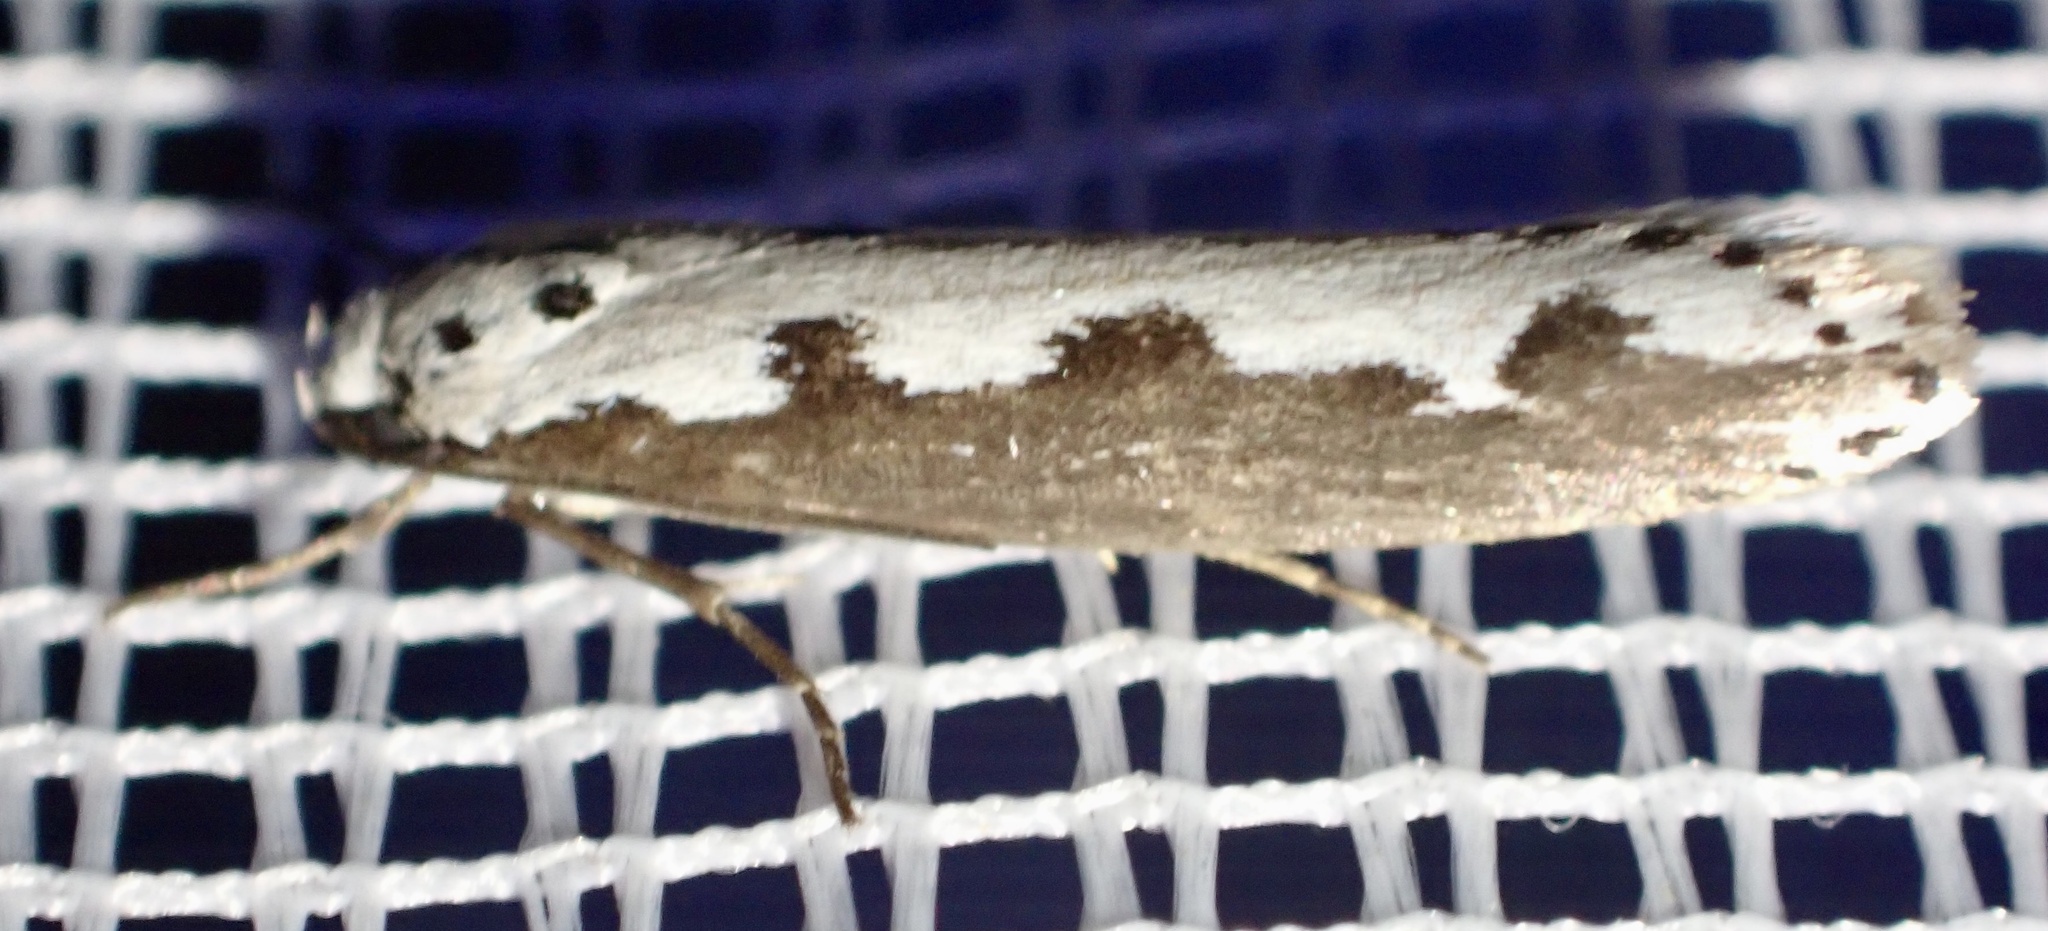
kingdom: Animalia
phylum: Arthropoda
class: Insecta
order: Lepidoptera
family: Ethmiidae
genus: Ethmia
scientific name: Ethmia bipunctella
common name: Bordered ermel
